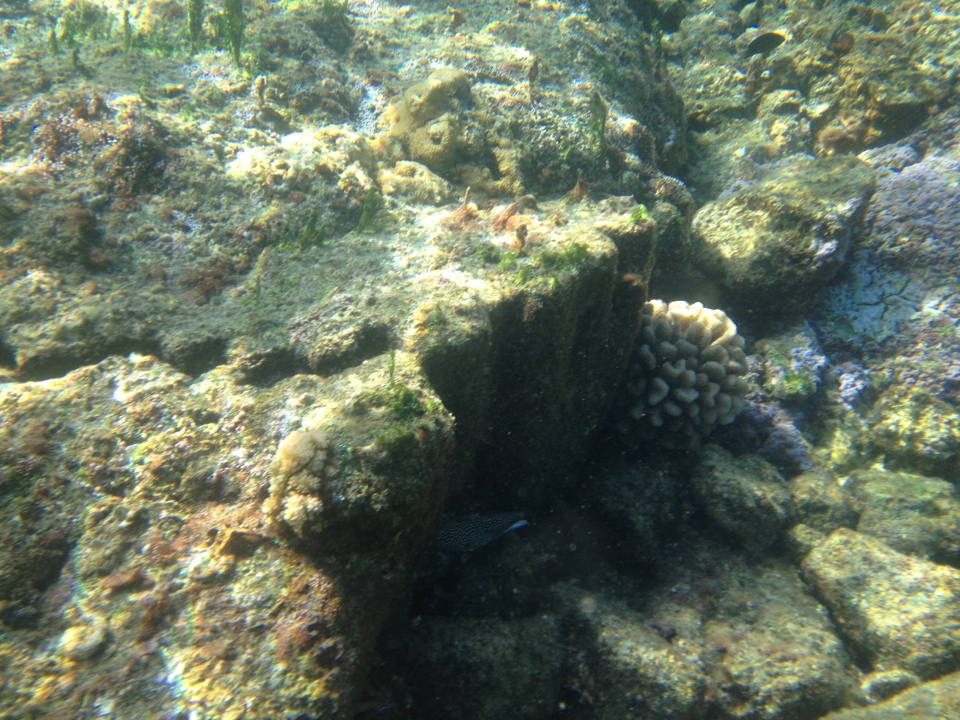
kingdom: Animalia
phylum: Chordata
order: Anguilliformes
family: Muraenidae
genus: Gymnothorax
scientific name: Gymnothorax meleagris
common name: Guineafowl moray
